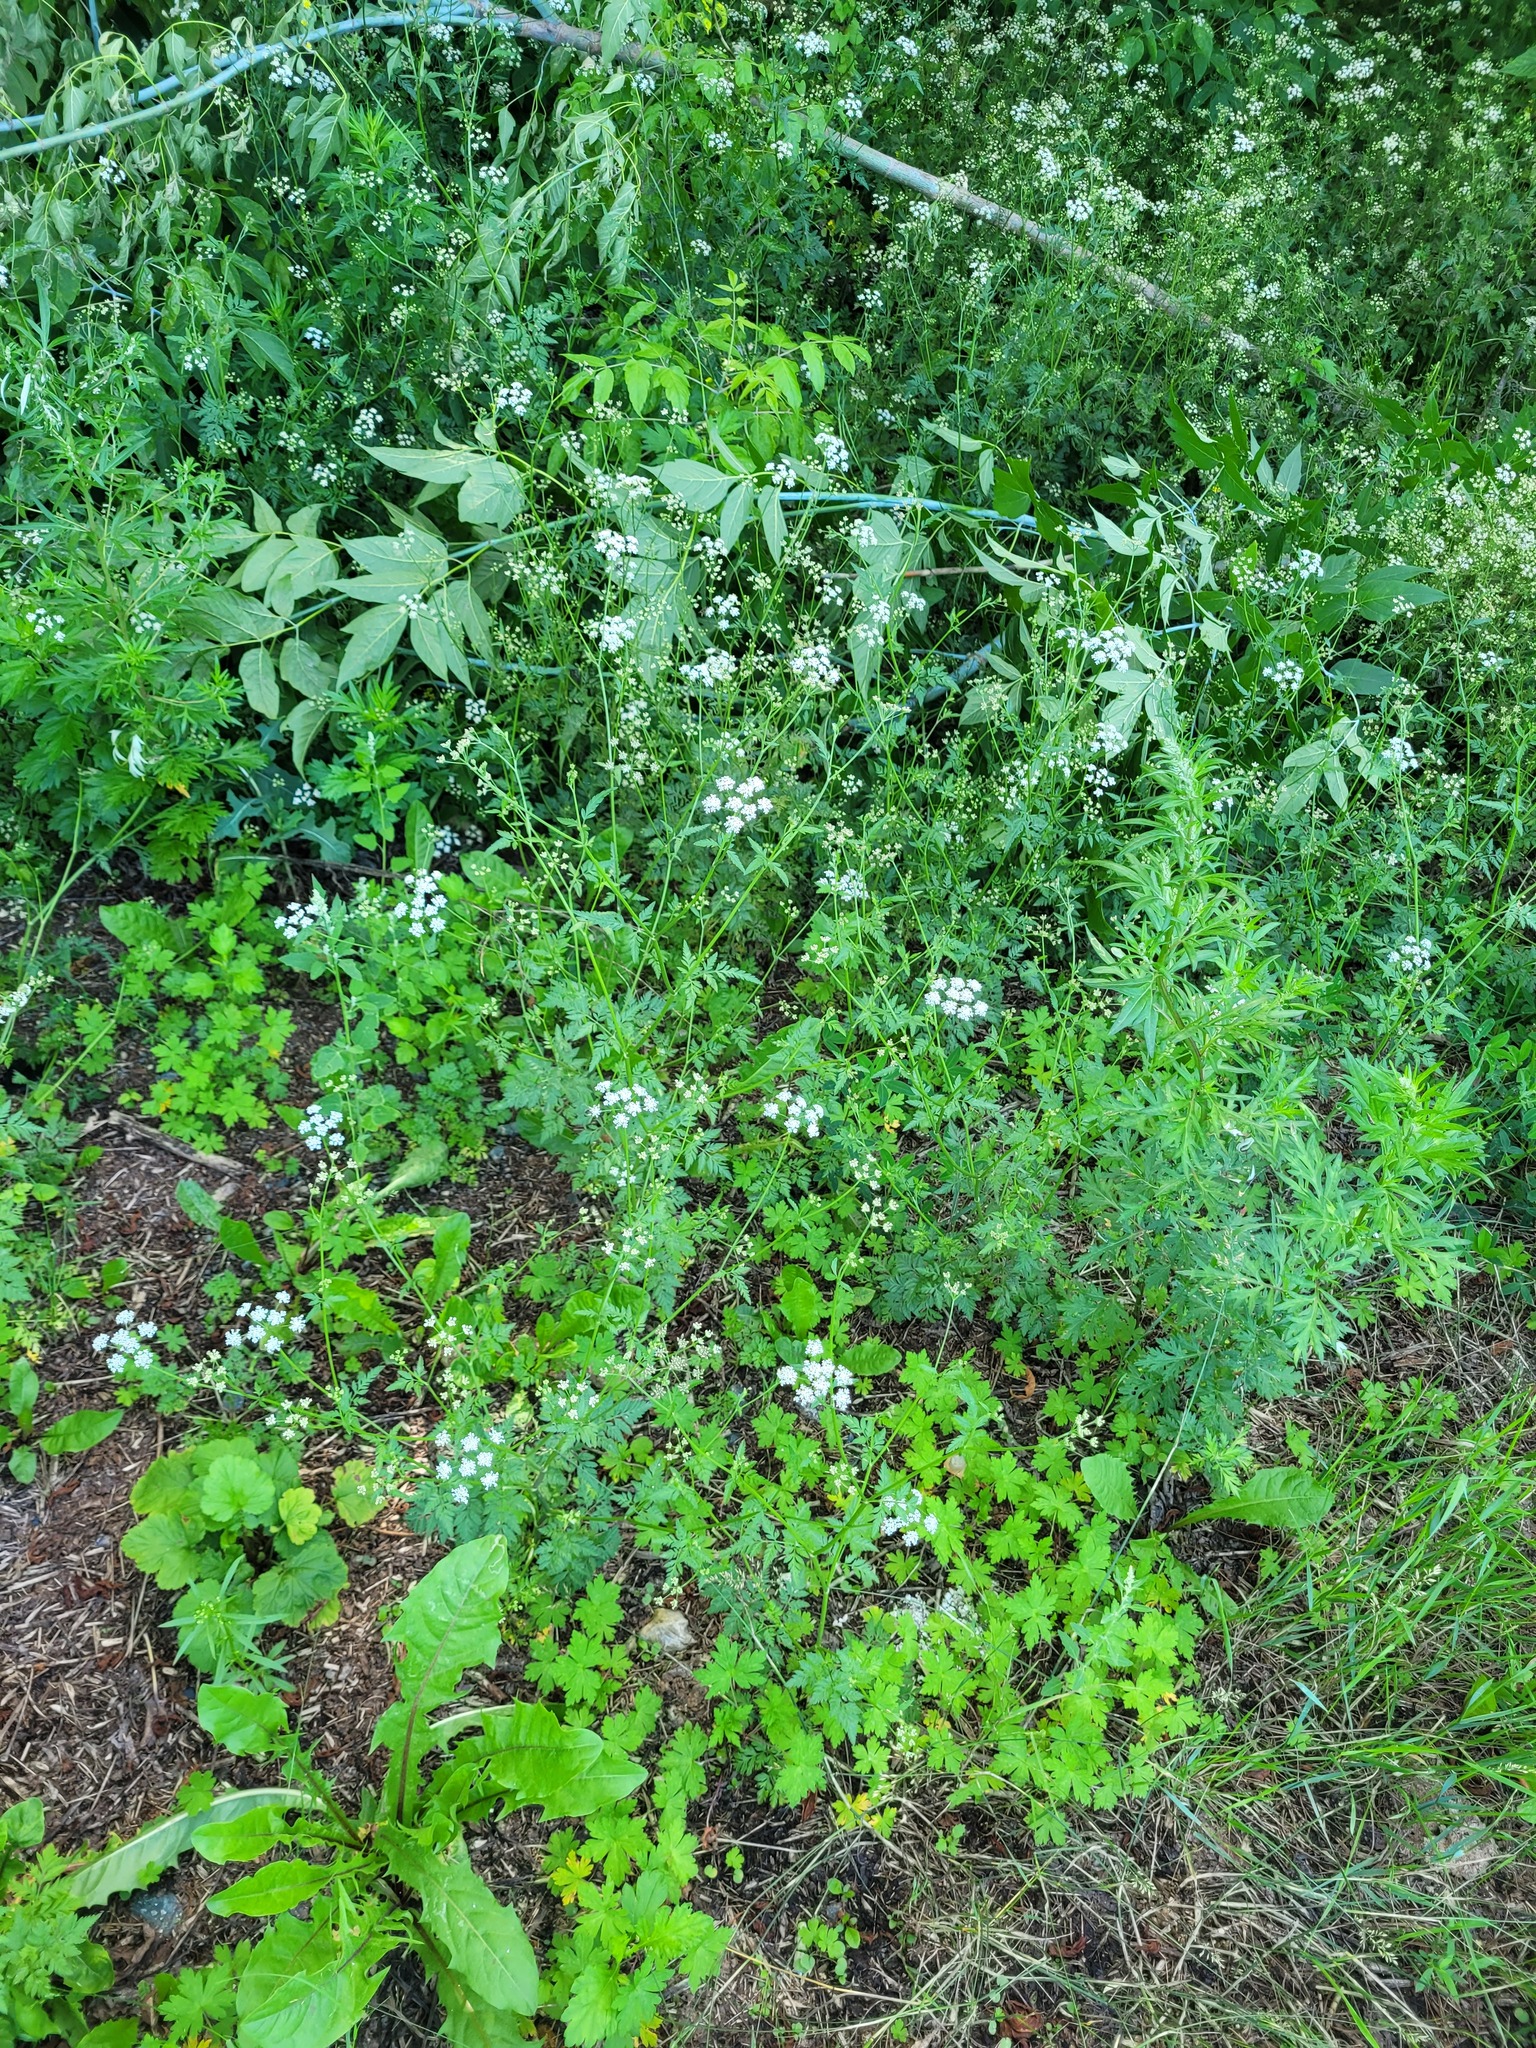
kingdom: Plantae
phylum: Tracheophyta
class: Magnoliopsida
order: Apiales
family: Apiaceae
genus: Torilis
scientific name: Torilis japonica
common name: Upright hedge-parsley
